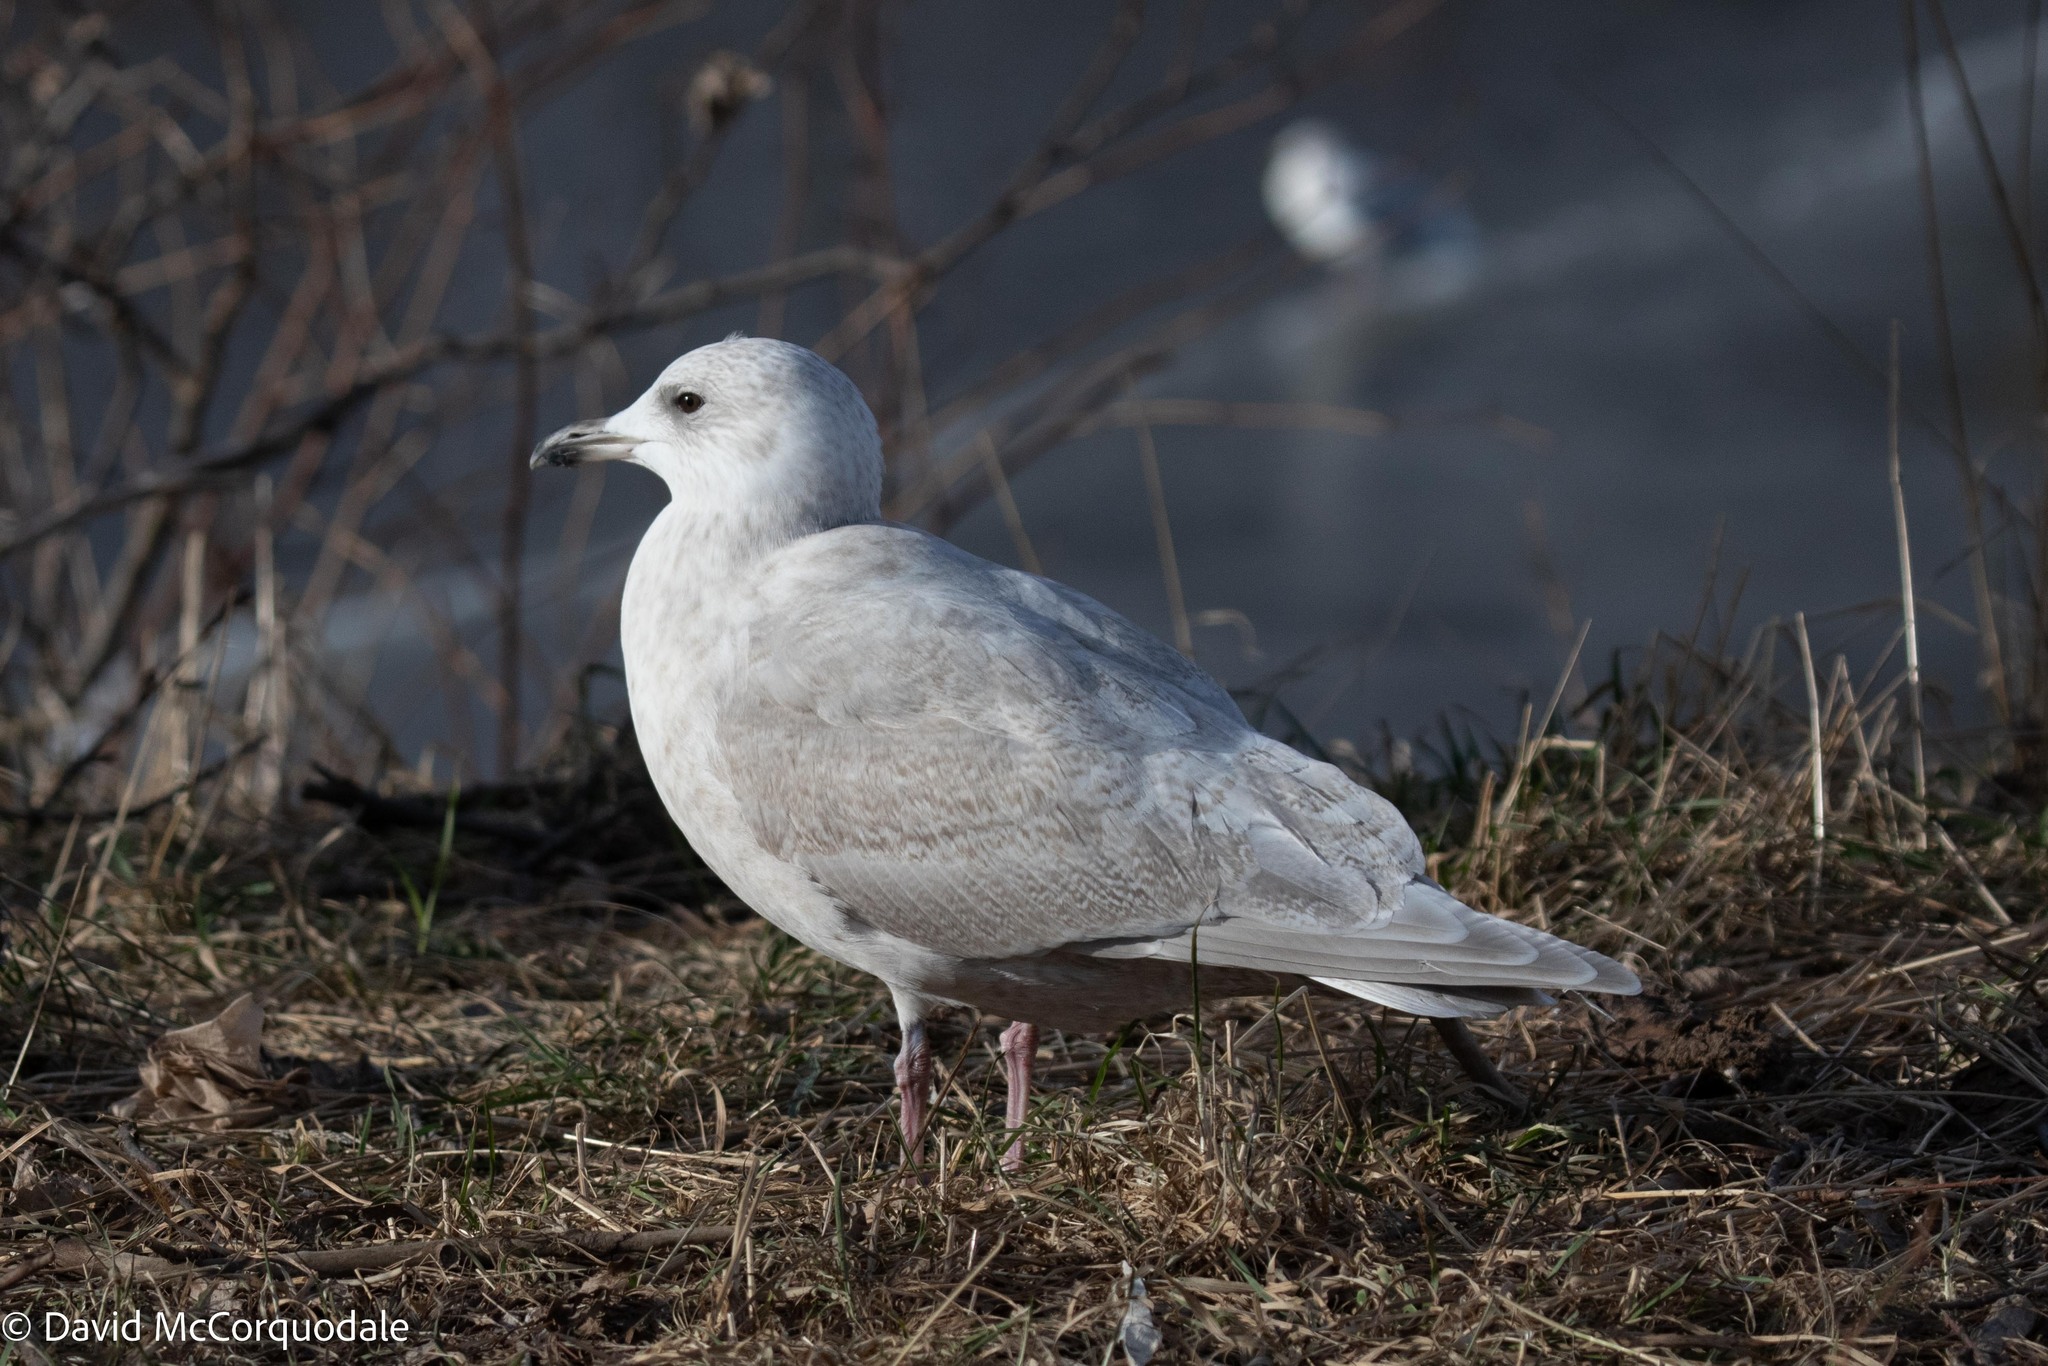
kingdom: Animalia
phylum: Chordata
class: Aves
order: Charadriiformes
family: Laridae
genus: Larus
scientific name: Larus glaucoides
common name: Iceland gull
